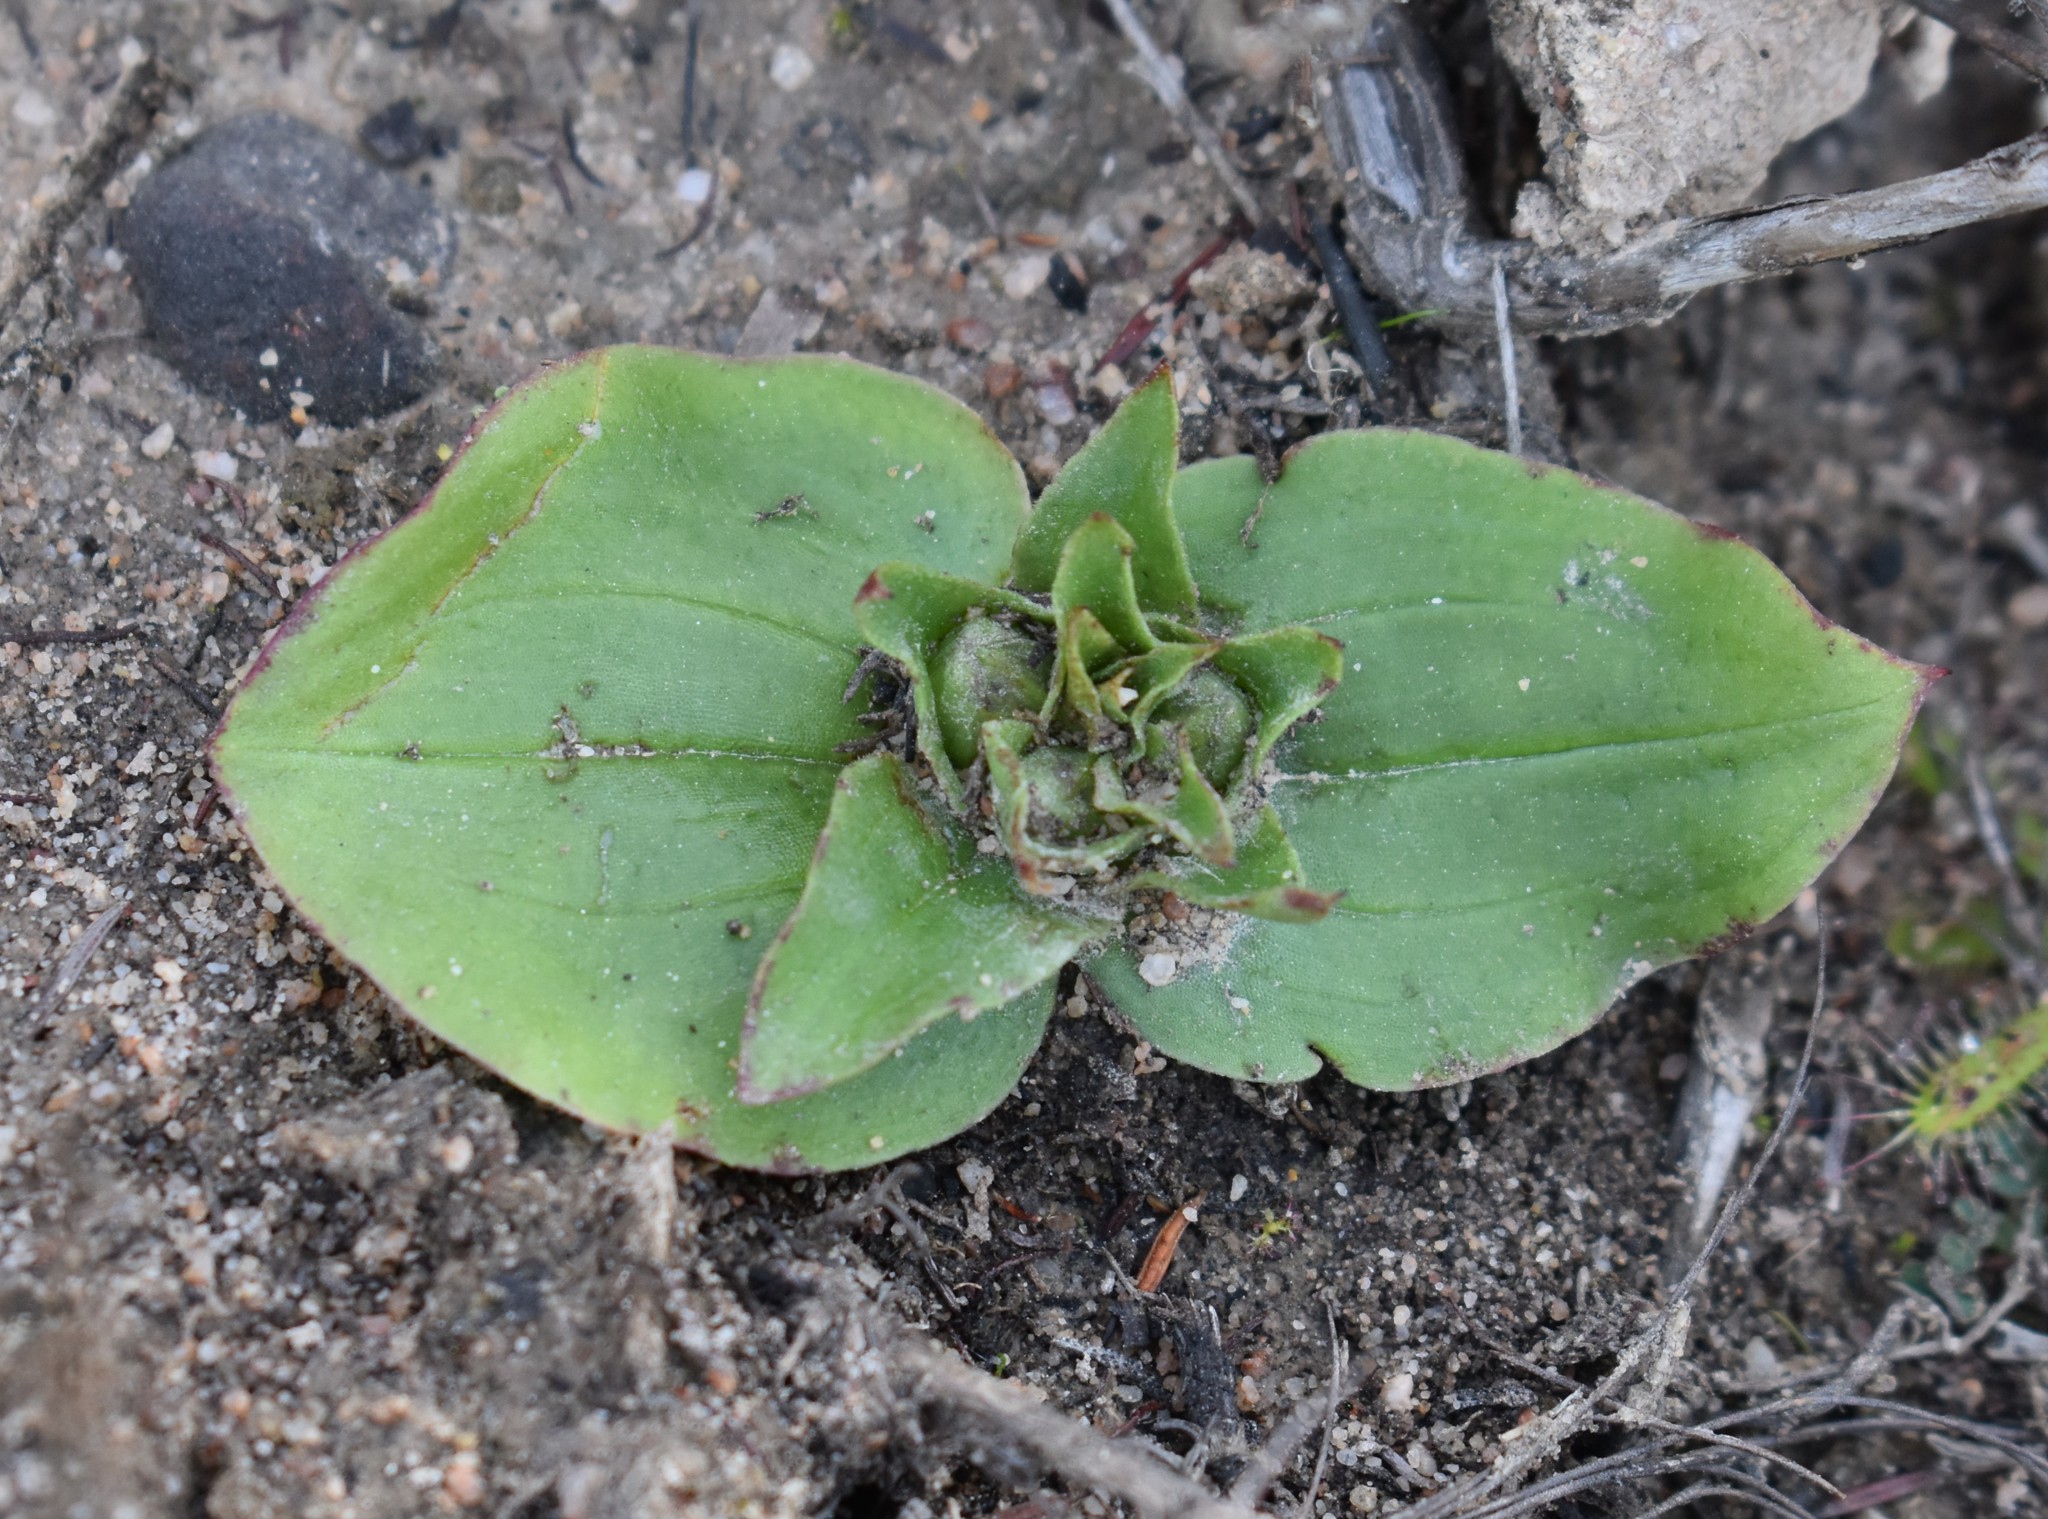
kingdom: Plantae
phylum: Tracheophyta
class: Liliopsida
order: Asparagales
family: Orchidaceae
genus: Satyrium
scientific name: Satyrium pumilum
